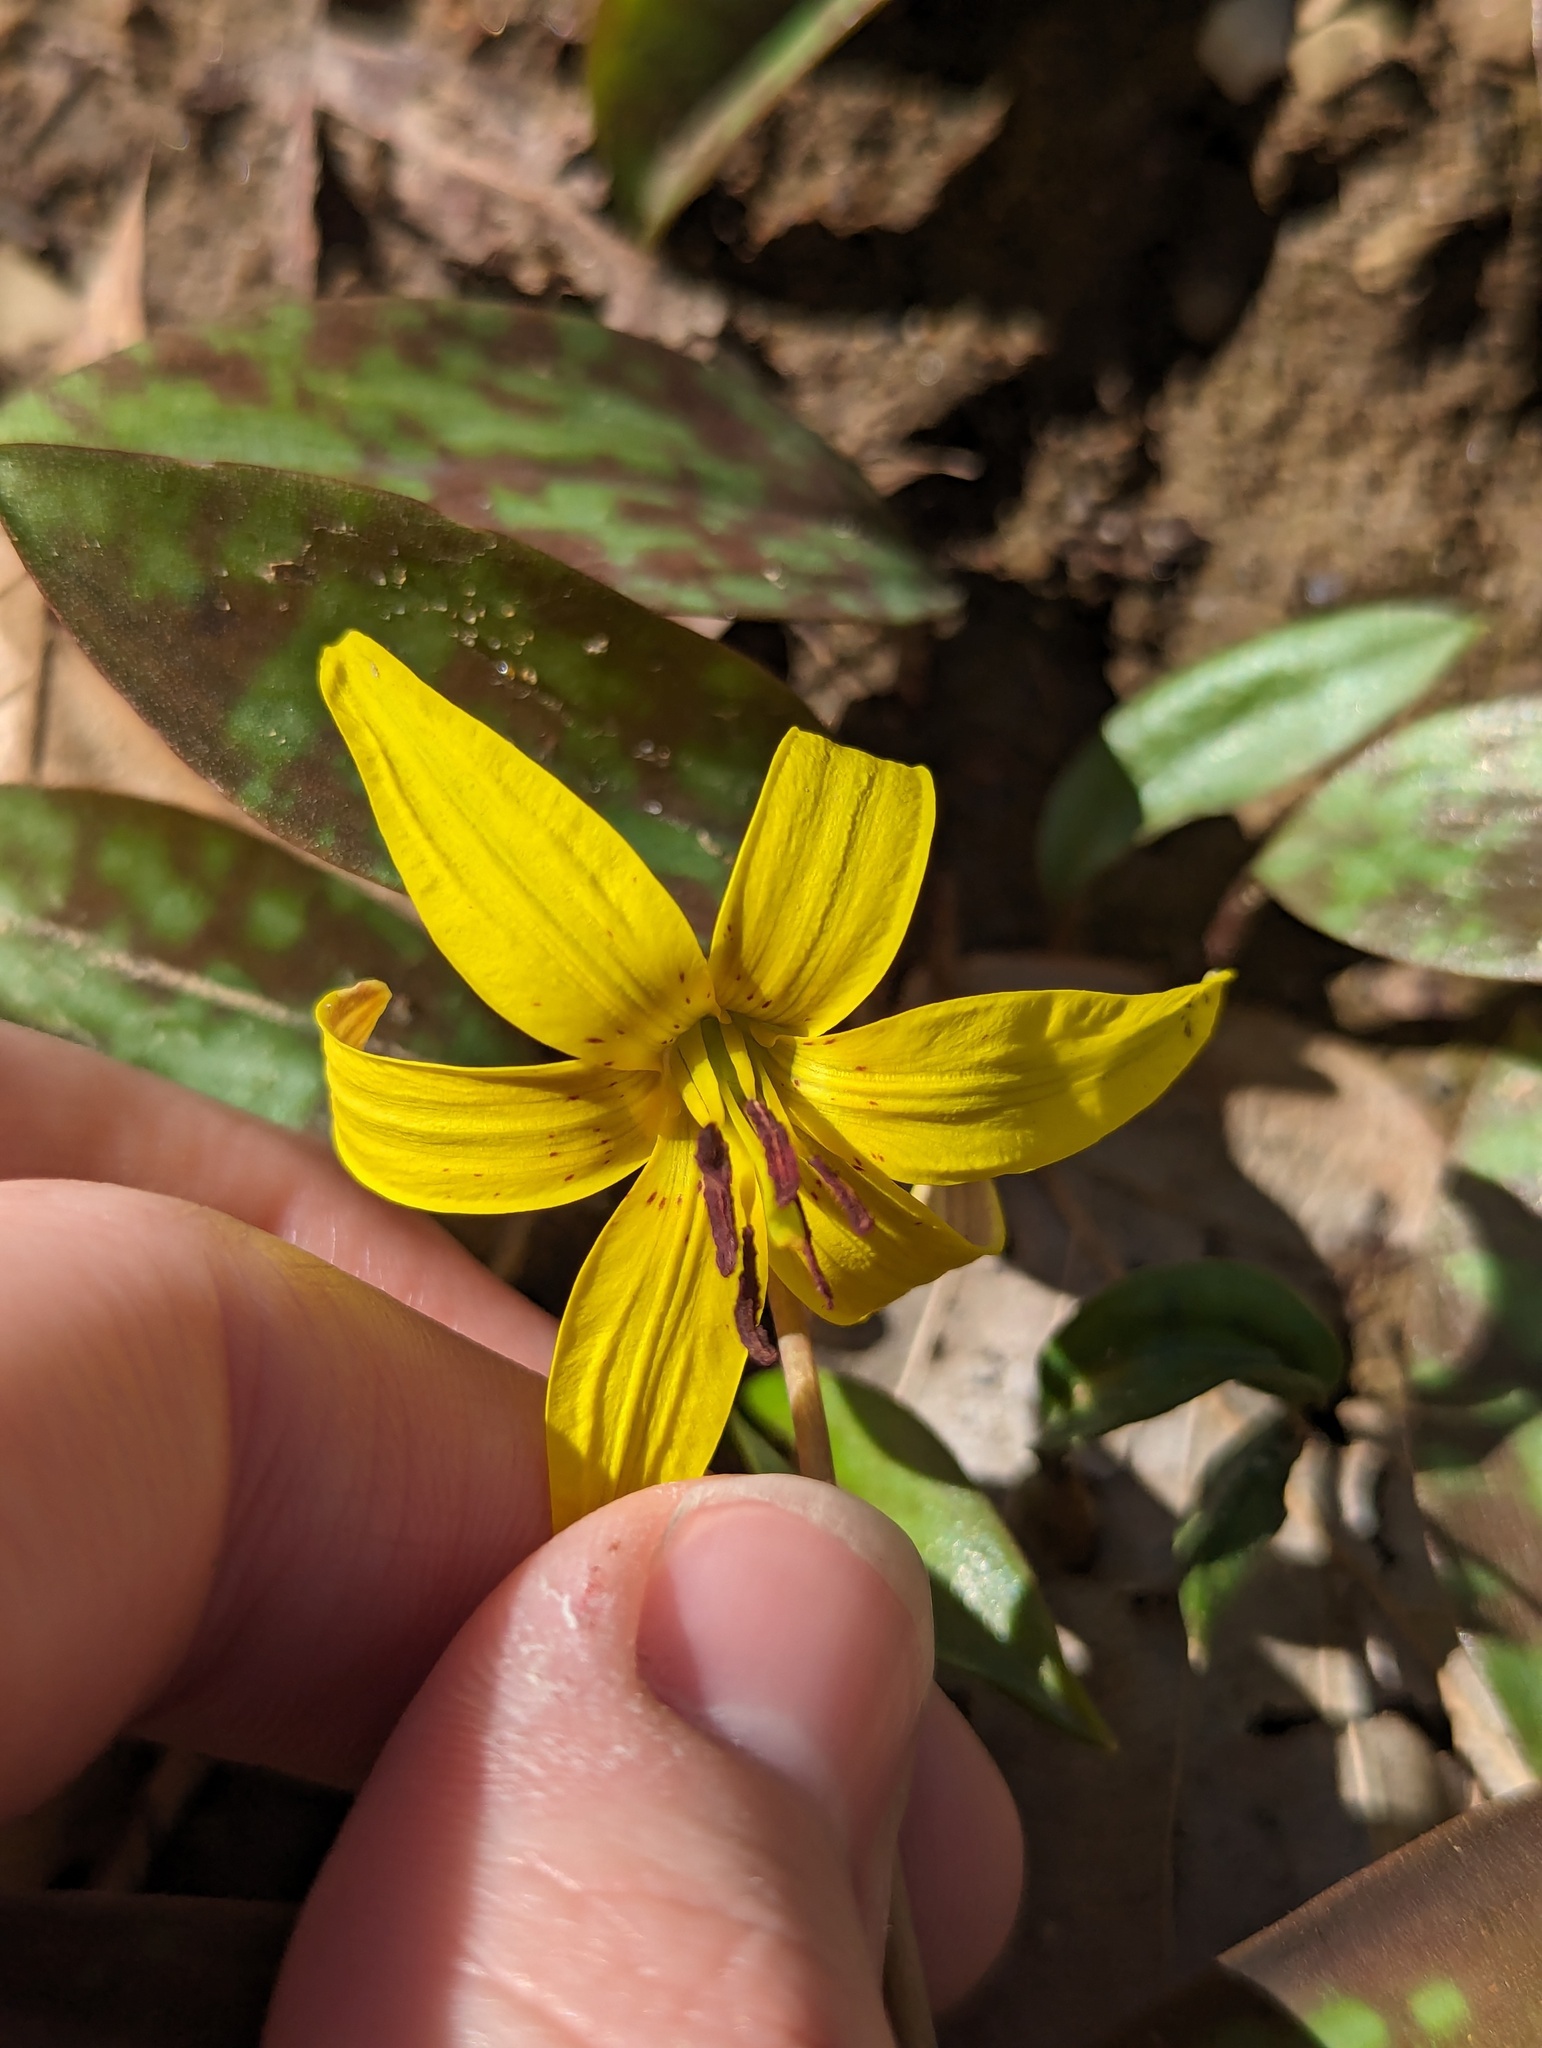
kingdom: Plantae
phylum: Tracheophyta
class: Liliopsida
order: Liliales
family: Liliaceae
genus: Erythronium
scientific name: Erythronium americanum
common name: Yellow adder's-tongue
